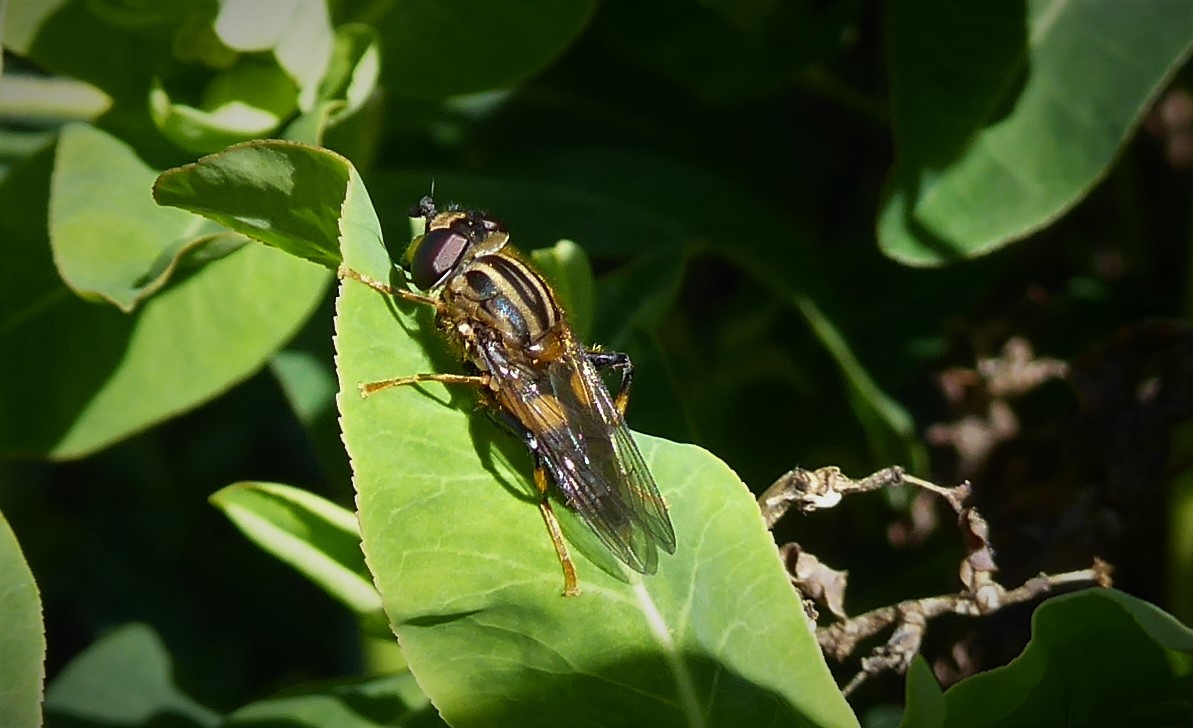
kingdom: Animalia
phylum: Arthropoda
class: Insecta
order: Diptera
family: Syrphidae
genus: Helophilus
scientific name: Helophilus antipodus
